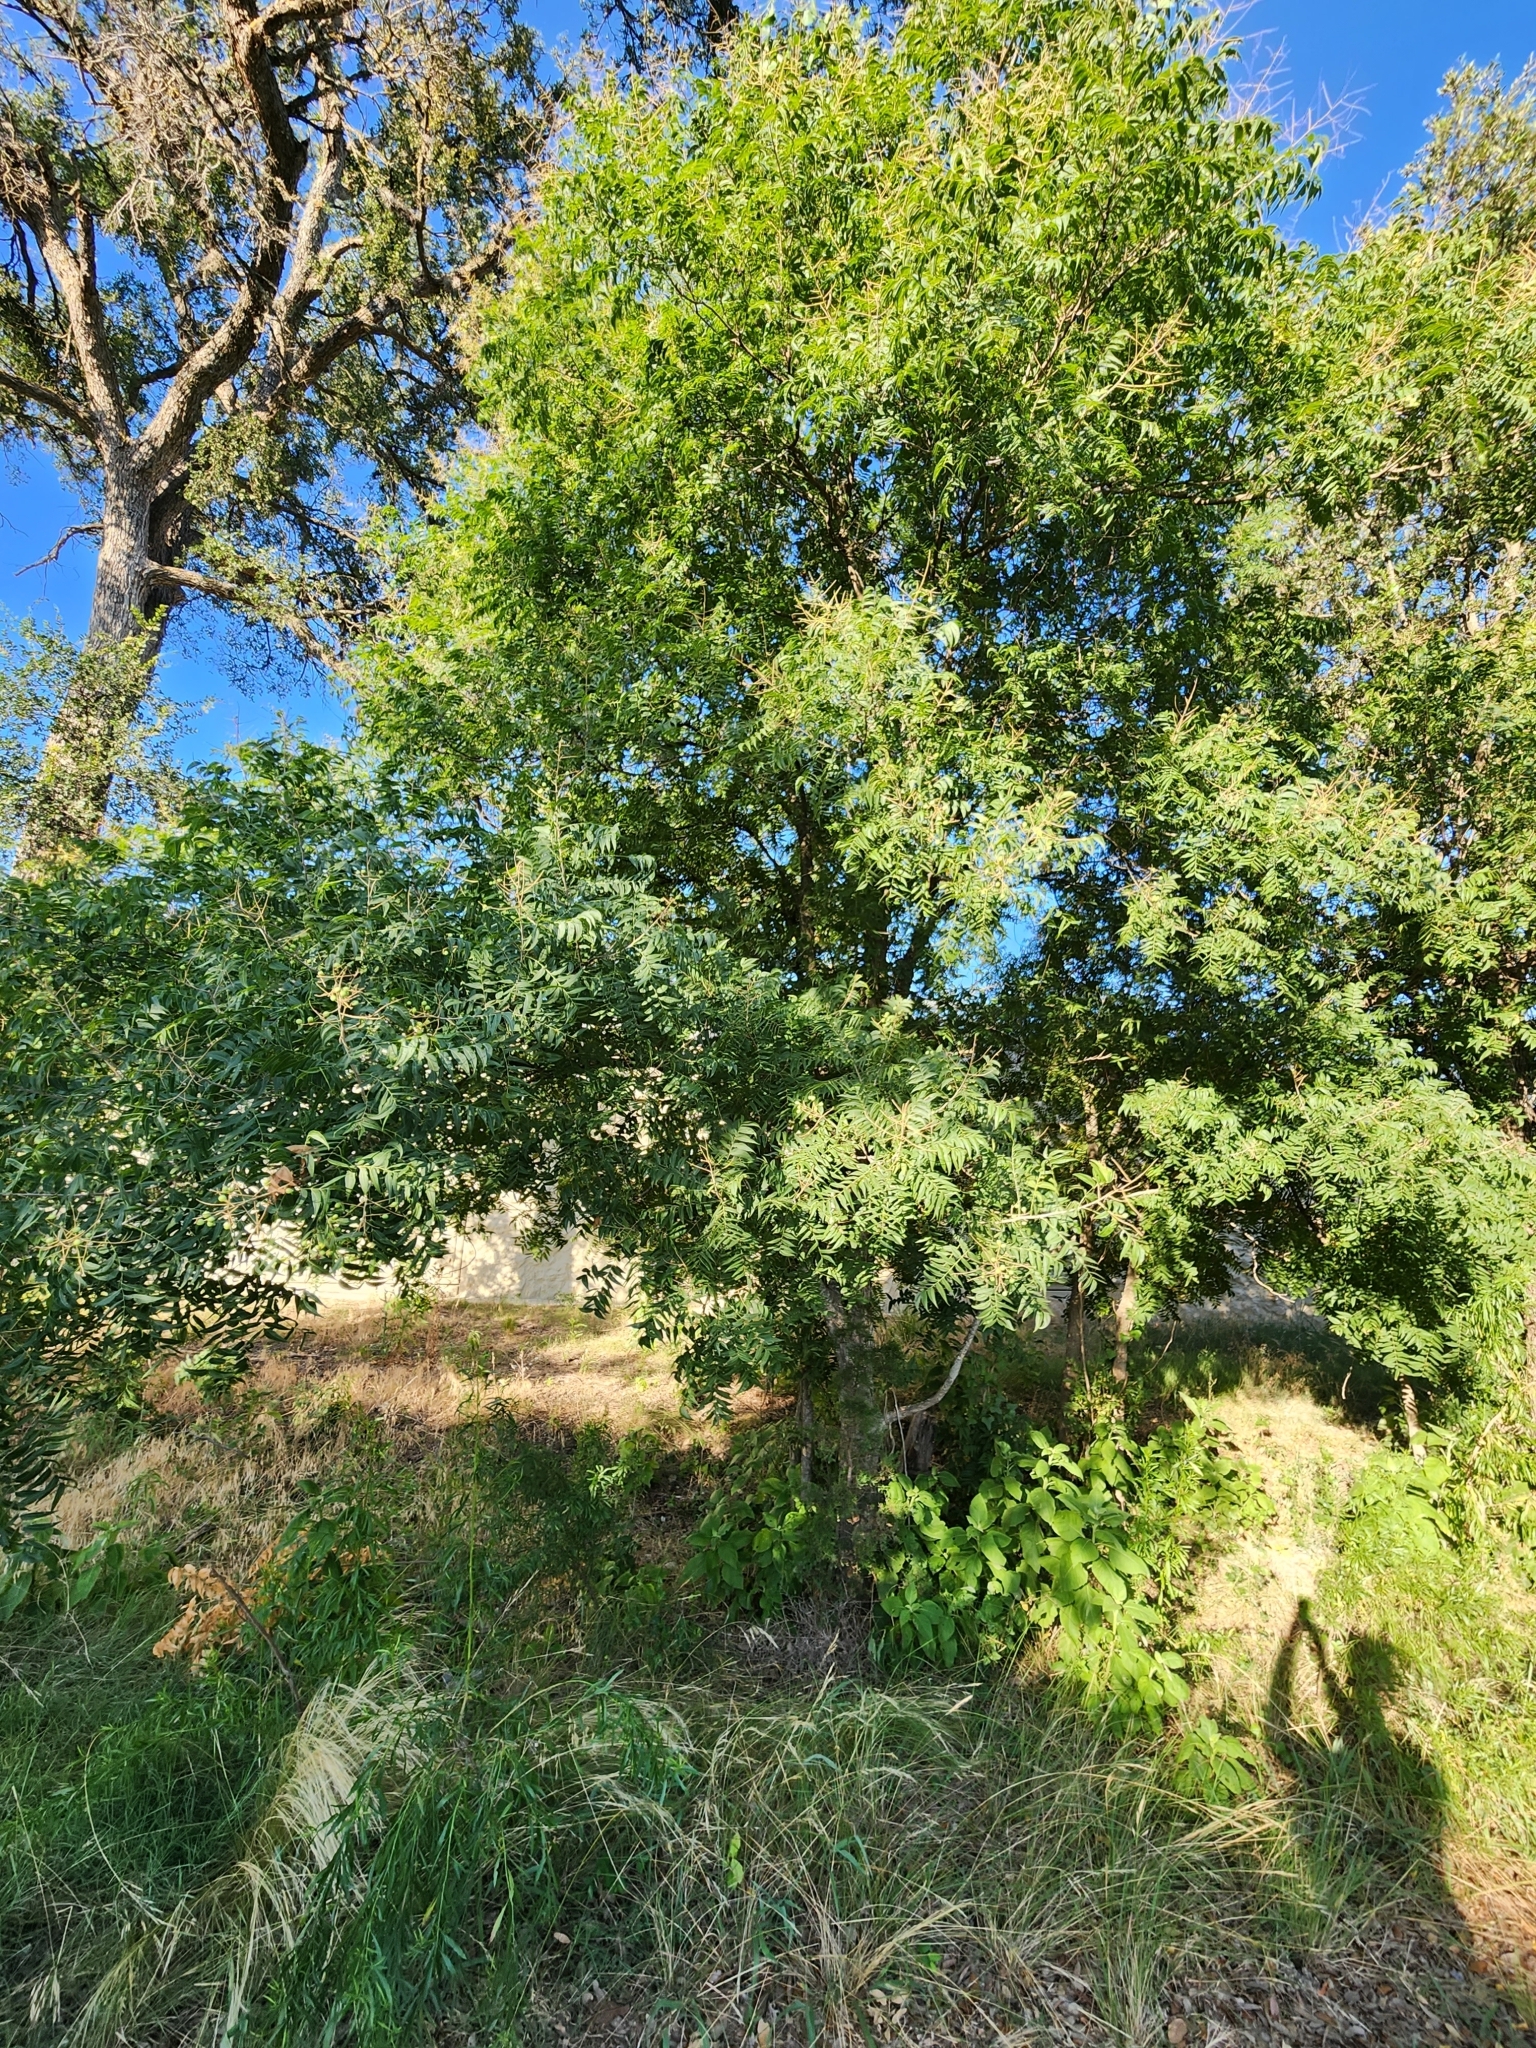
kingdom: Plantae
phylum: Tracheophyta
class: Magnoliopsida
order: Sapindales
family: Sapindaceae
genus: Sapindus
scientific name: Sapindus drummondii
